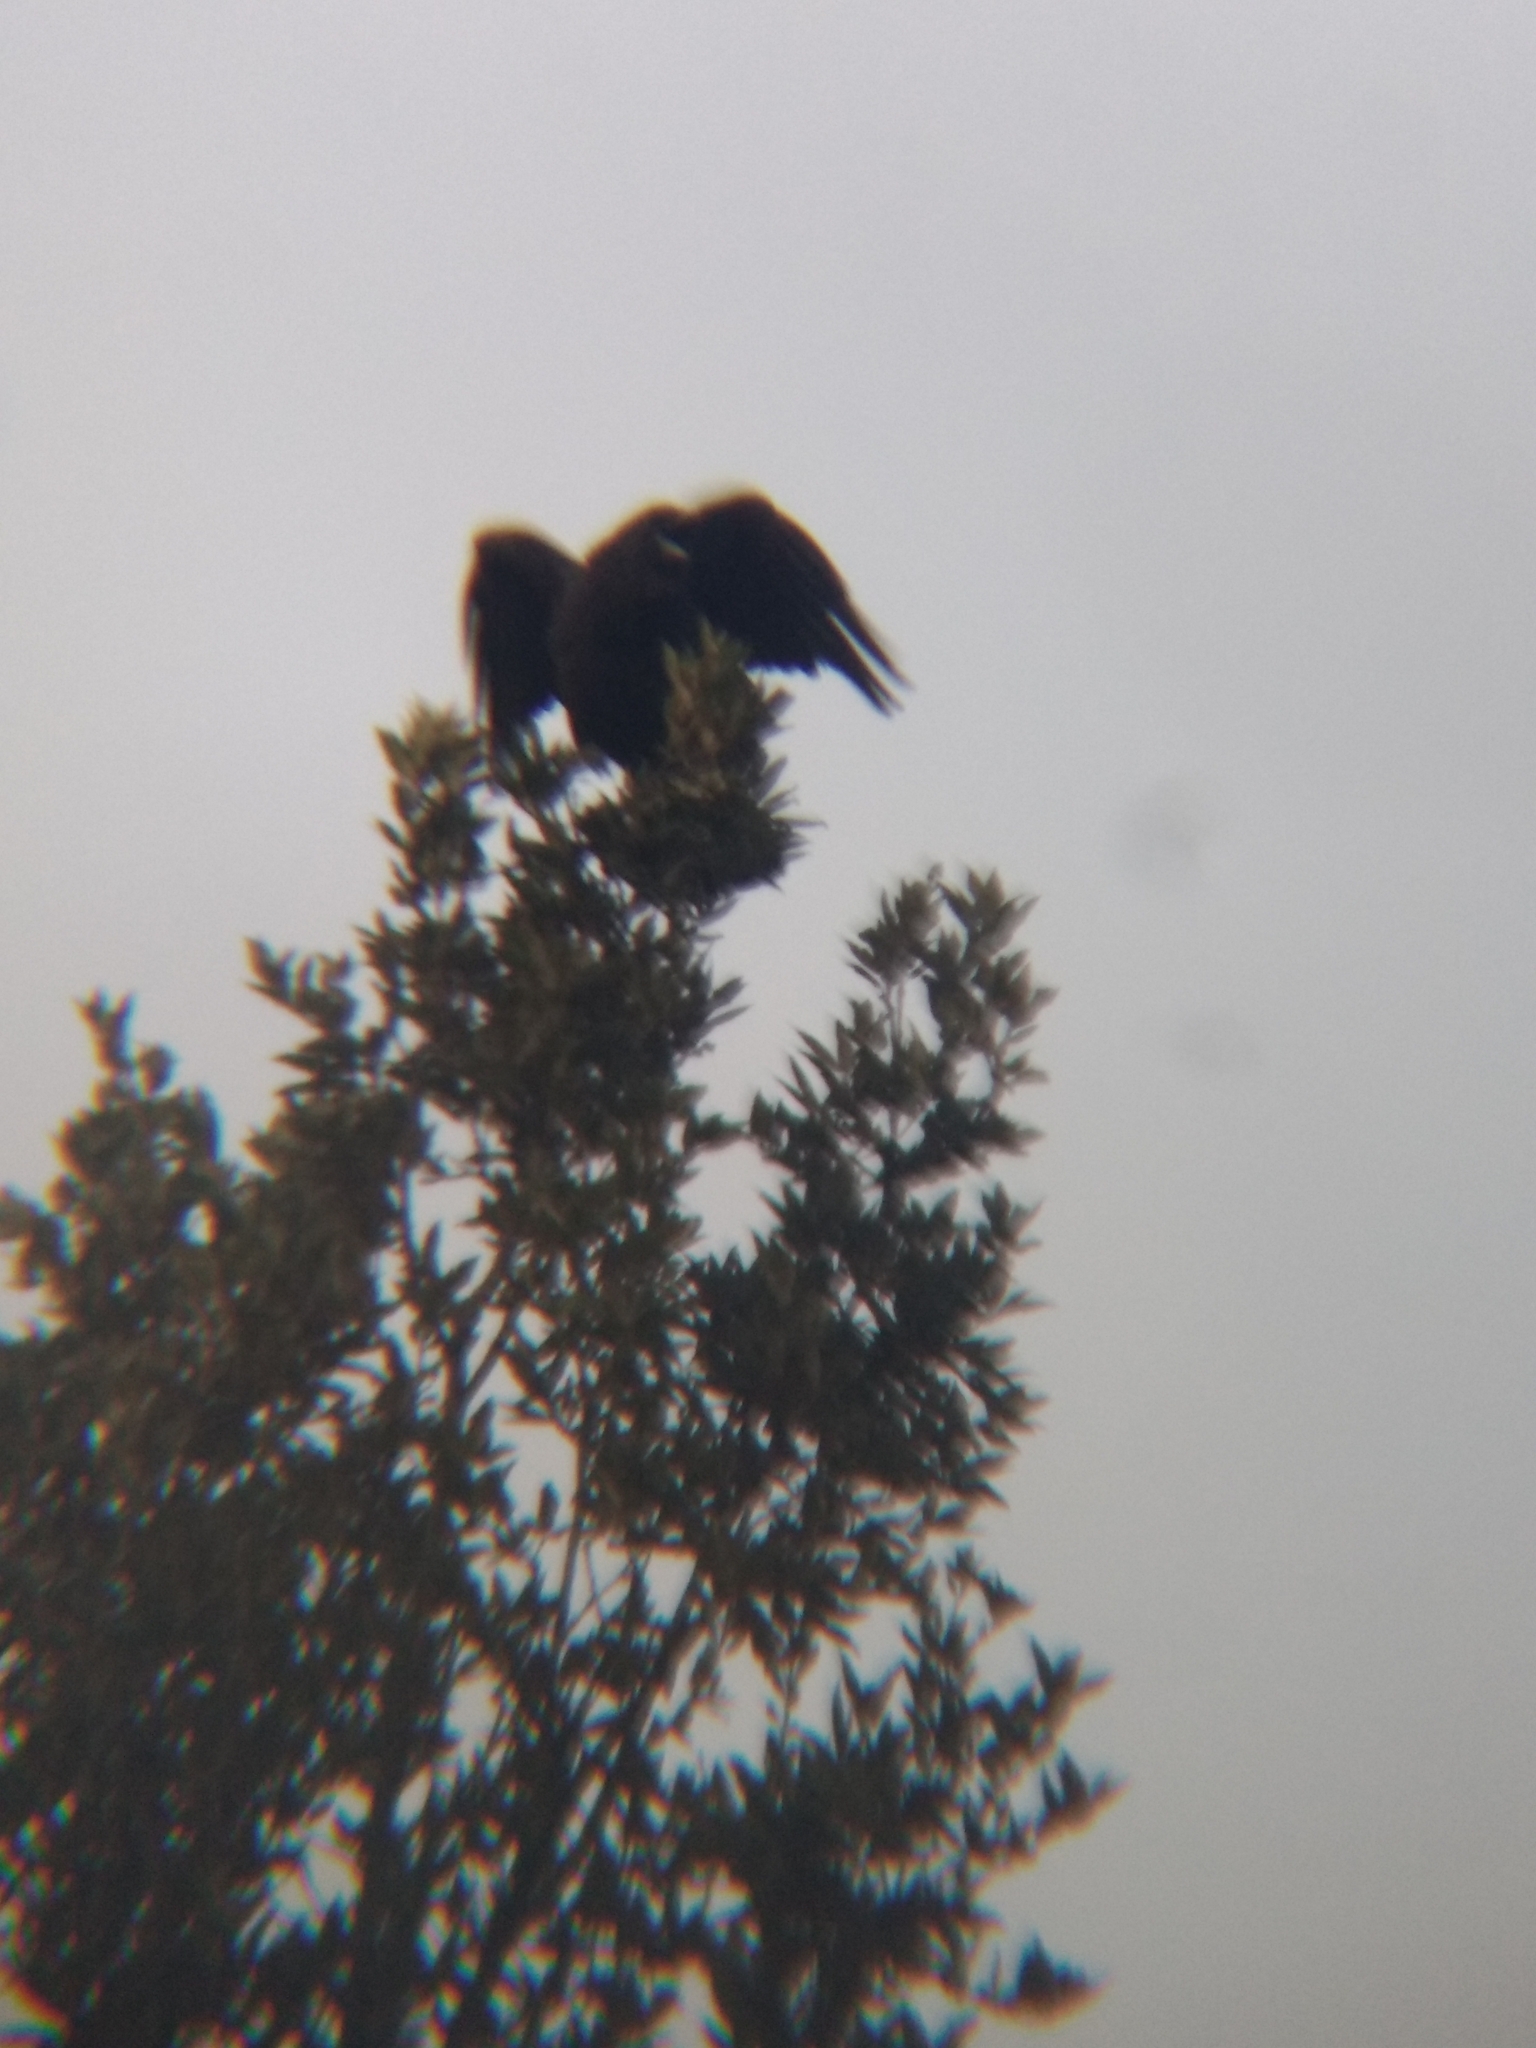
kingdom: Animalia
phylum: Chordata
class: Aves
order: Passeriformes
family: Corvidae
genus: Corvus
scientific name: Corvus brachyrhynchos
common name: American crow
